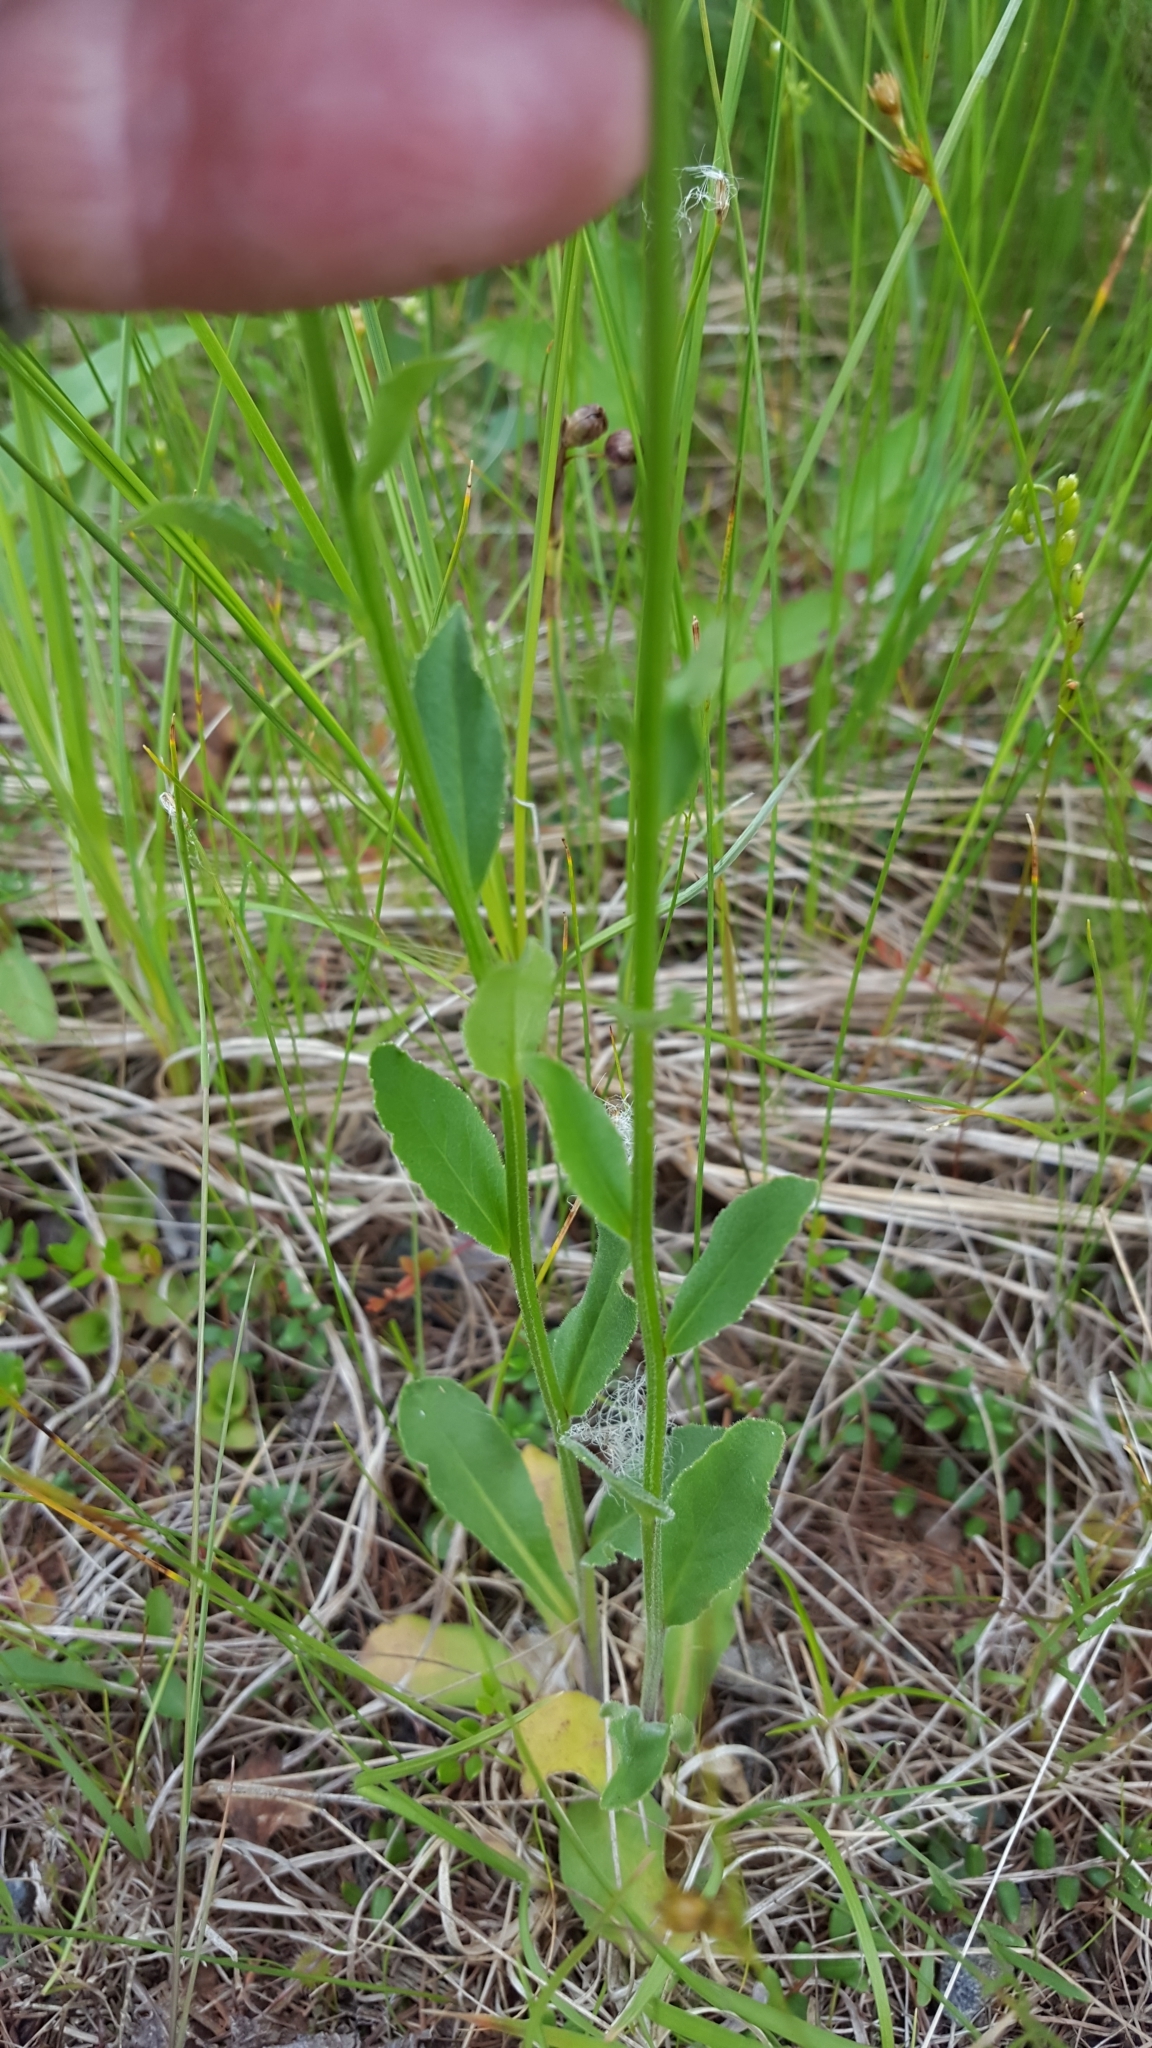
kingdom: Plantae
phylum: Tracheophyta
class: Magnoliopsida
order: Asterales
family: Campanulaceae
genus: Lobelia
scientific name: Lobelia spicata
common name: Pale-spike lobelia
